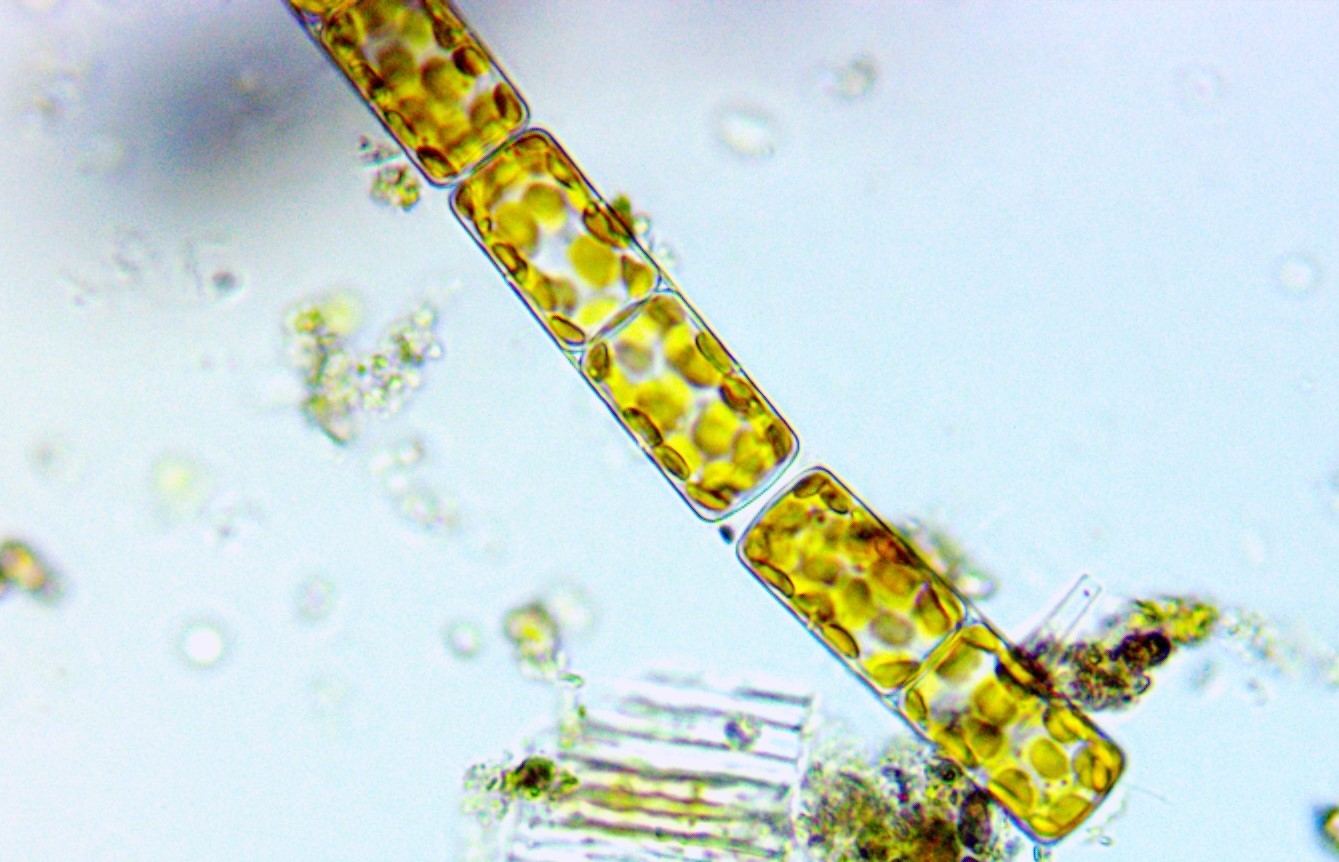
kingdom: Chromista
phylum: Ochrophyta
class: Bacillariophyceae
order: Melosirales
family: Melosiraceae
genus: Melosira
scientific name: Melosira varians
